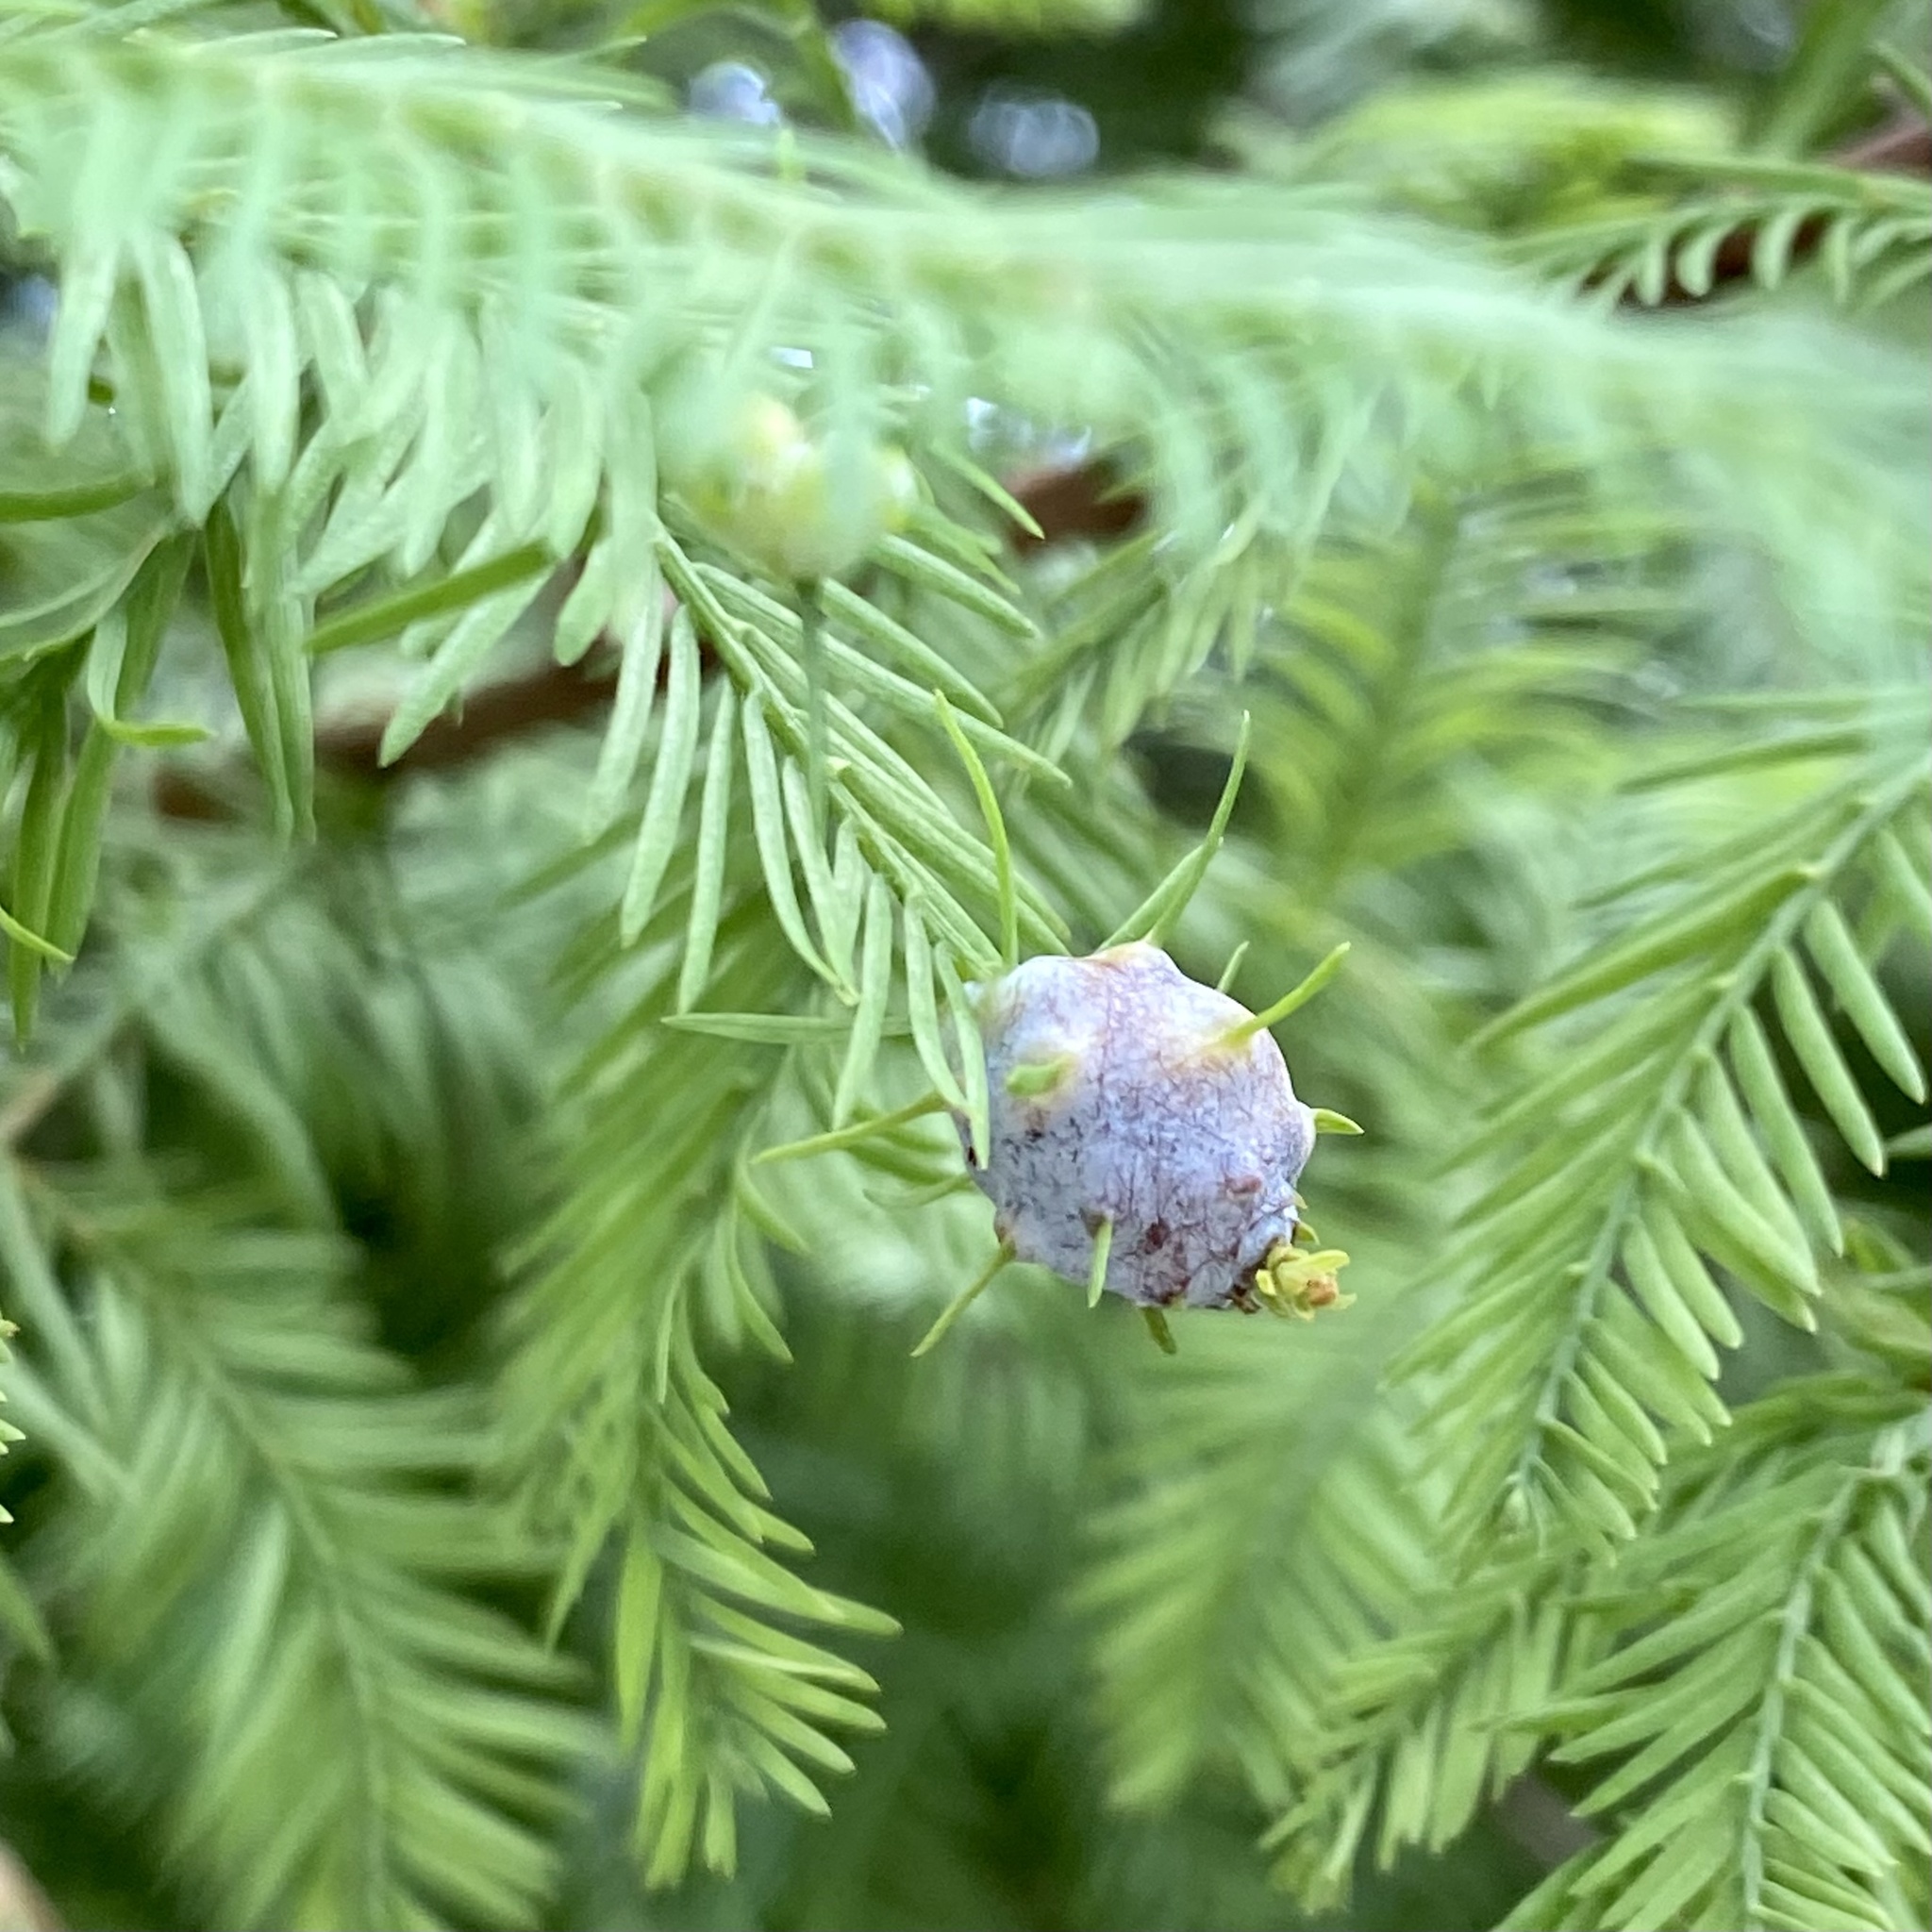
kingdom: Animalia
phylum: Arthropoda
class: Insecta
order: Diptera
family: Cecidomyiidae
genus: Taxodiomyia
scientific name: Taxodiomyia cupressiananassa
